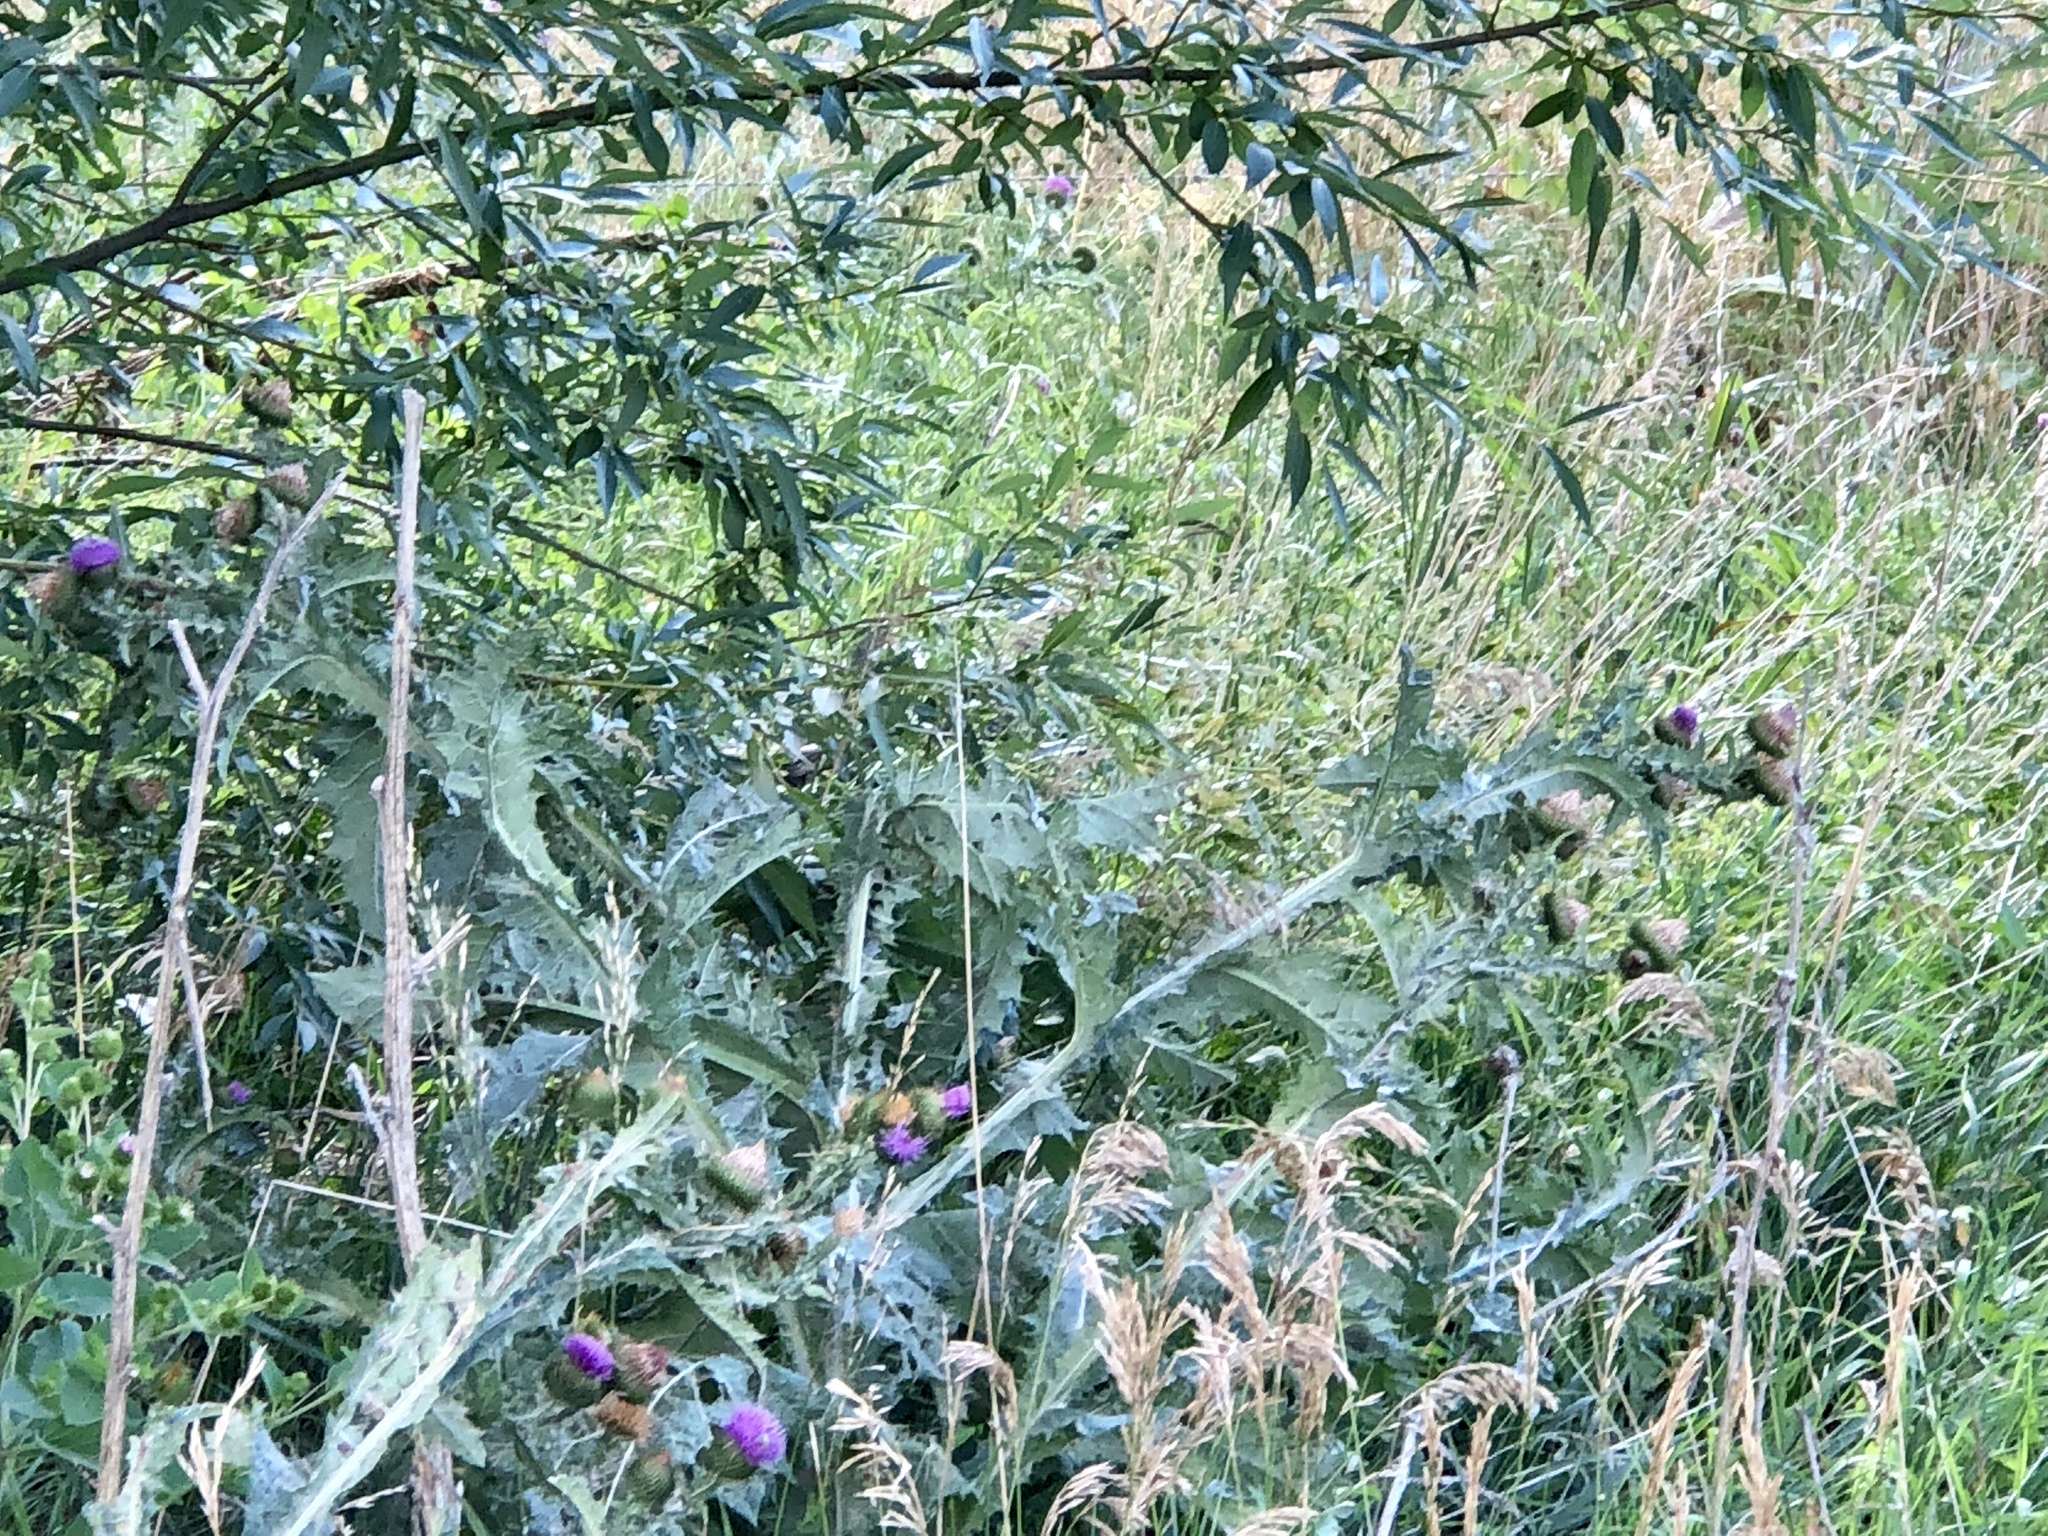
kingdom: Plantae
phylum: Tracheophyta
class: Magnoliopsida
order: Asterales
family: Asteraceae
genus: Onopordum
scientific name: Onopordum acanthium
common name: Scotch thistle
